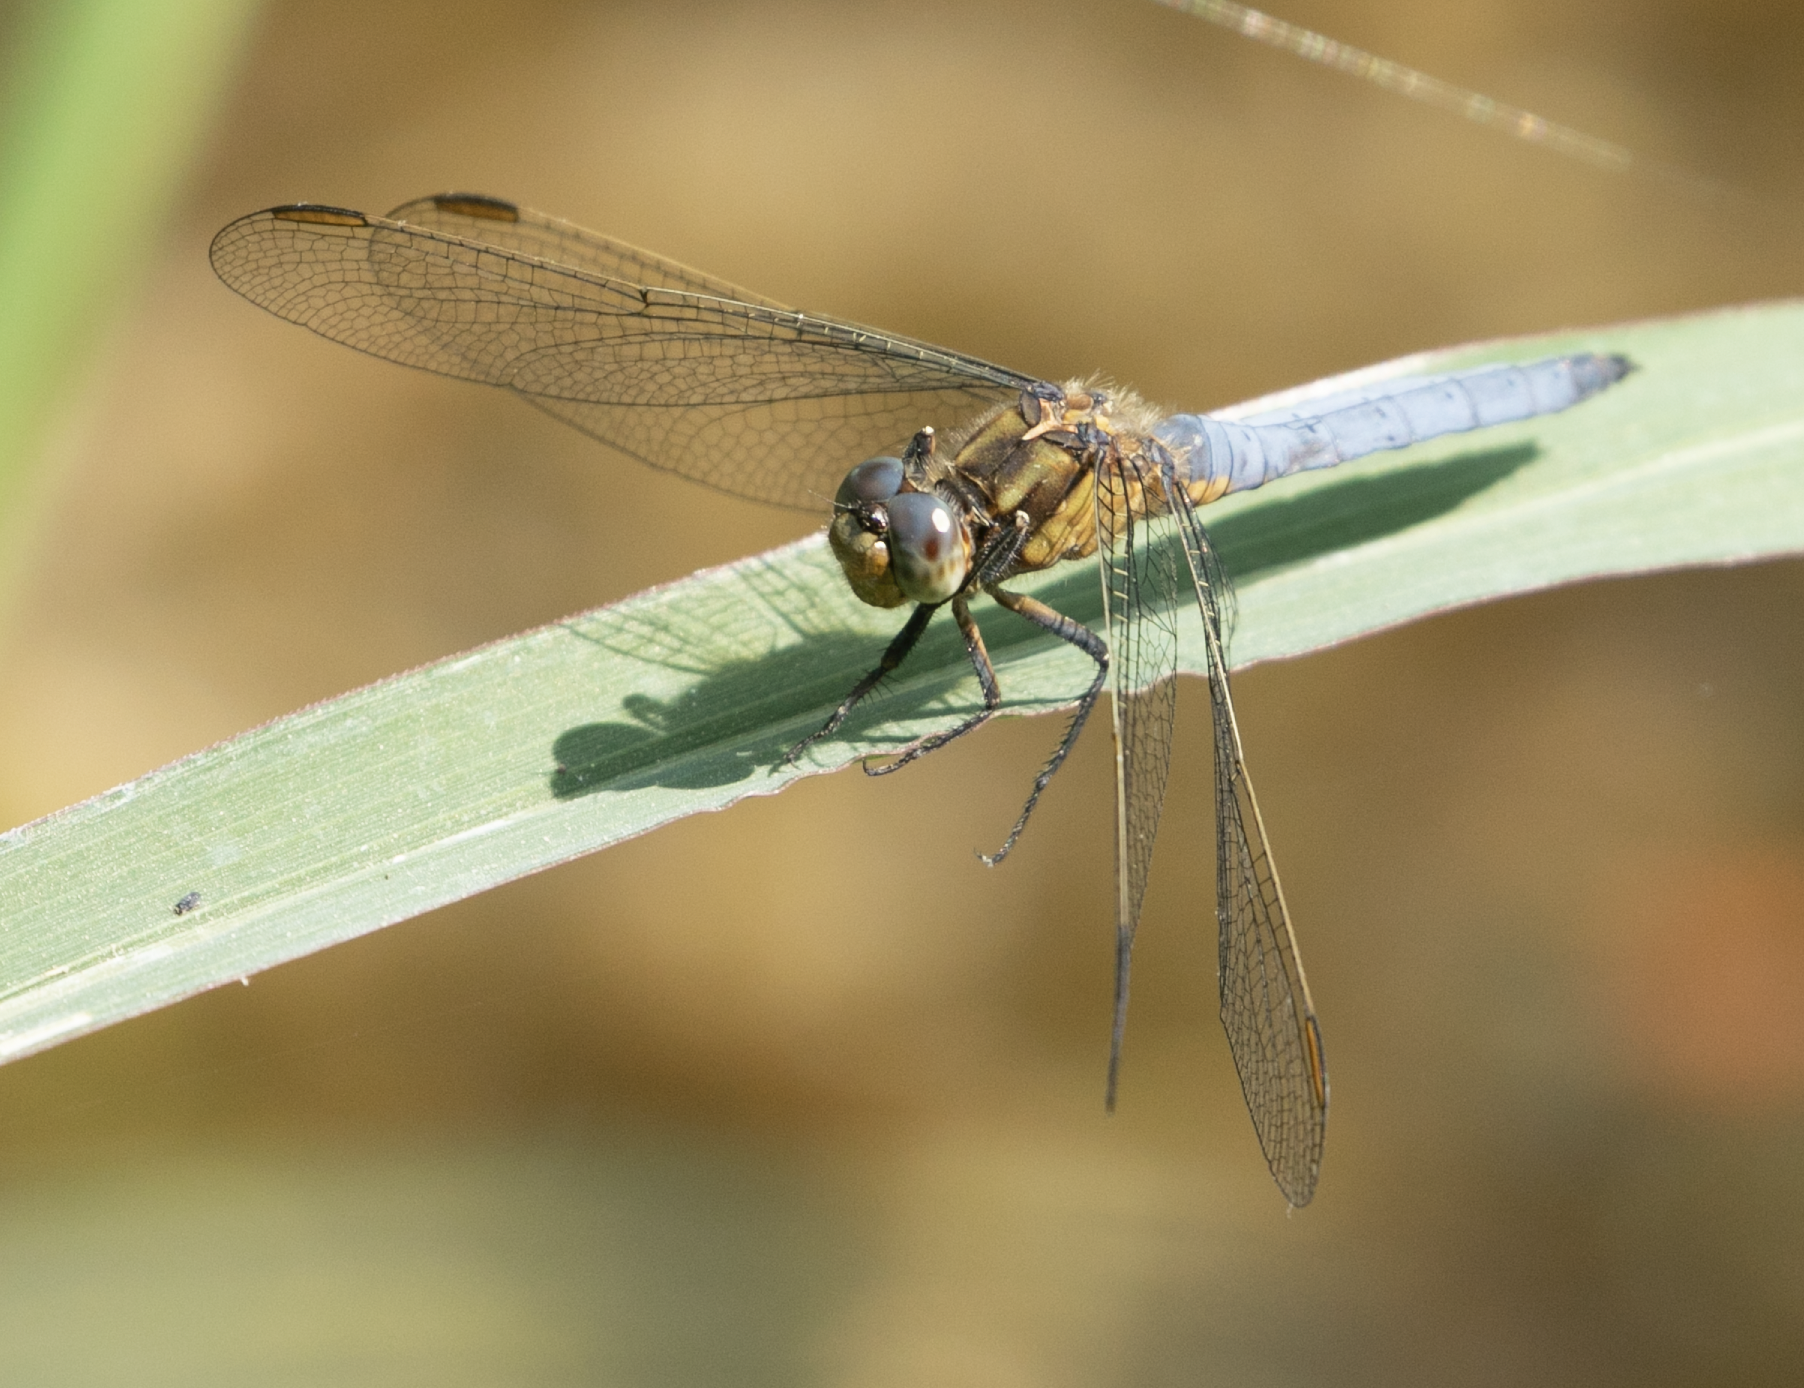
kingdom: Animalia
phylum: Arthropoda
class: Insecta
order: Odonata
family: Libellulidae
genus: Orthetrum
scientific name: Orthetrum coerulescens
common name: Keeled skimmer
